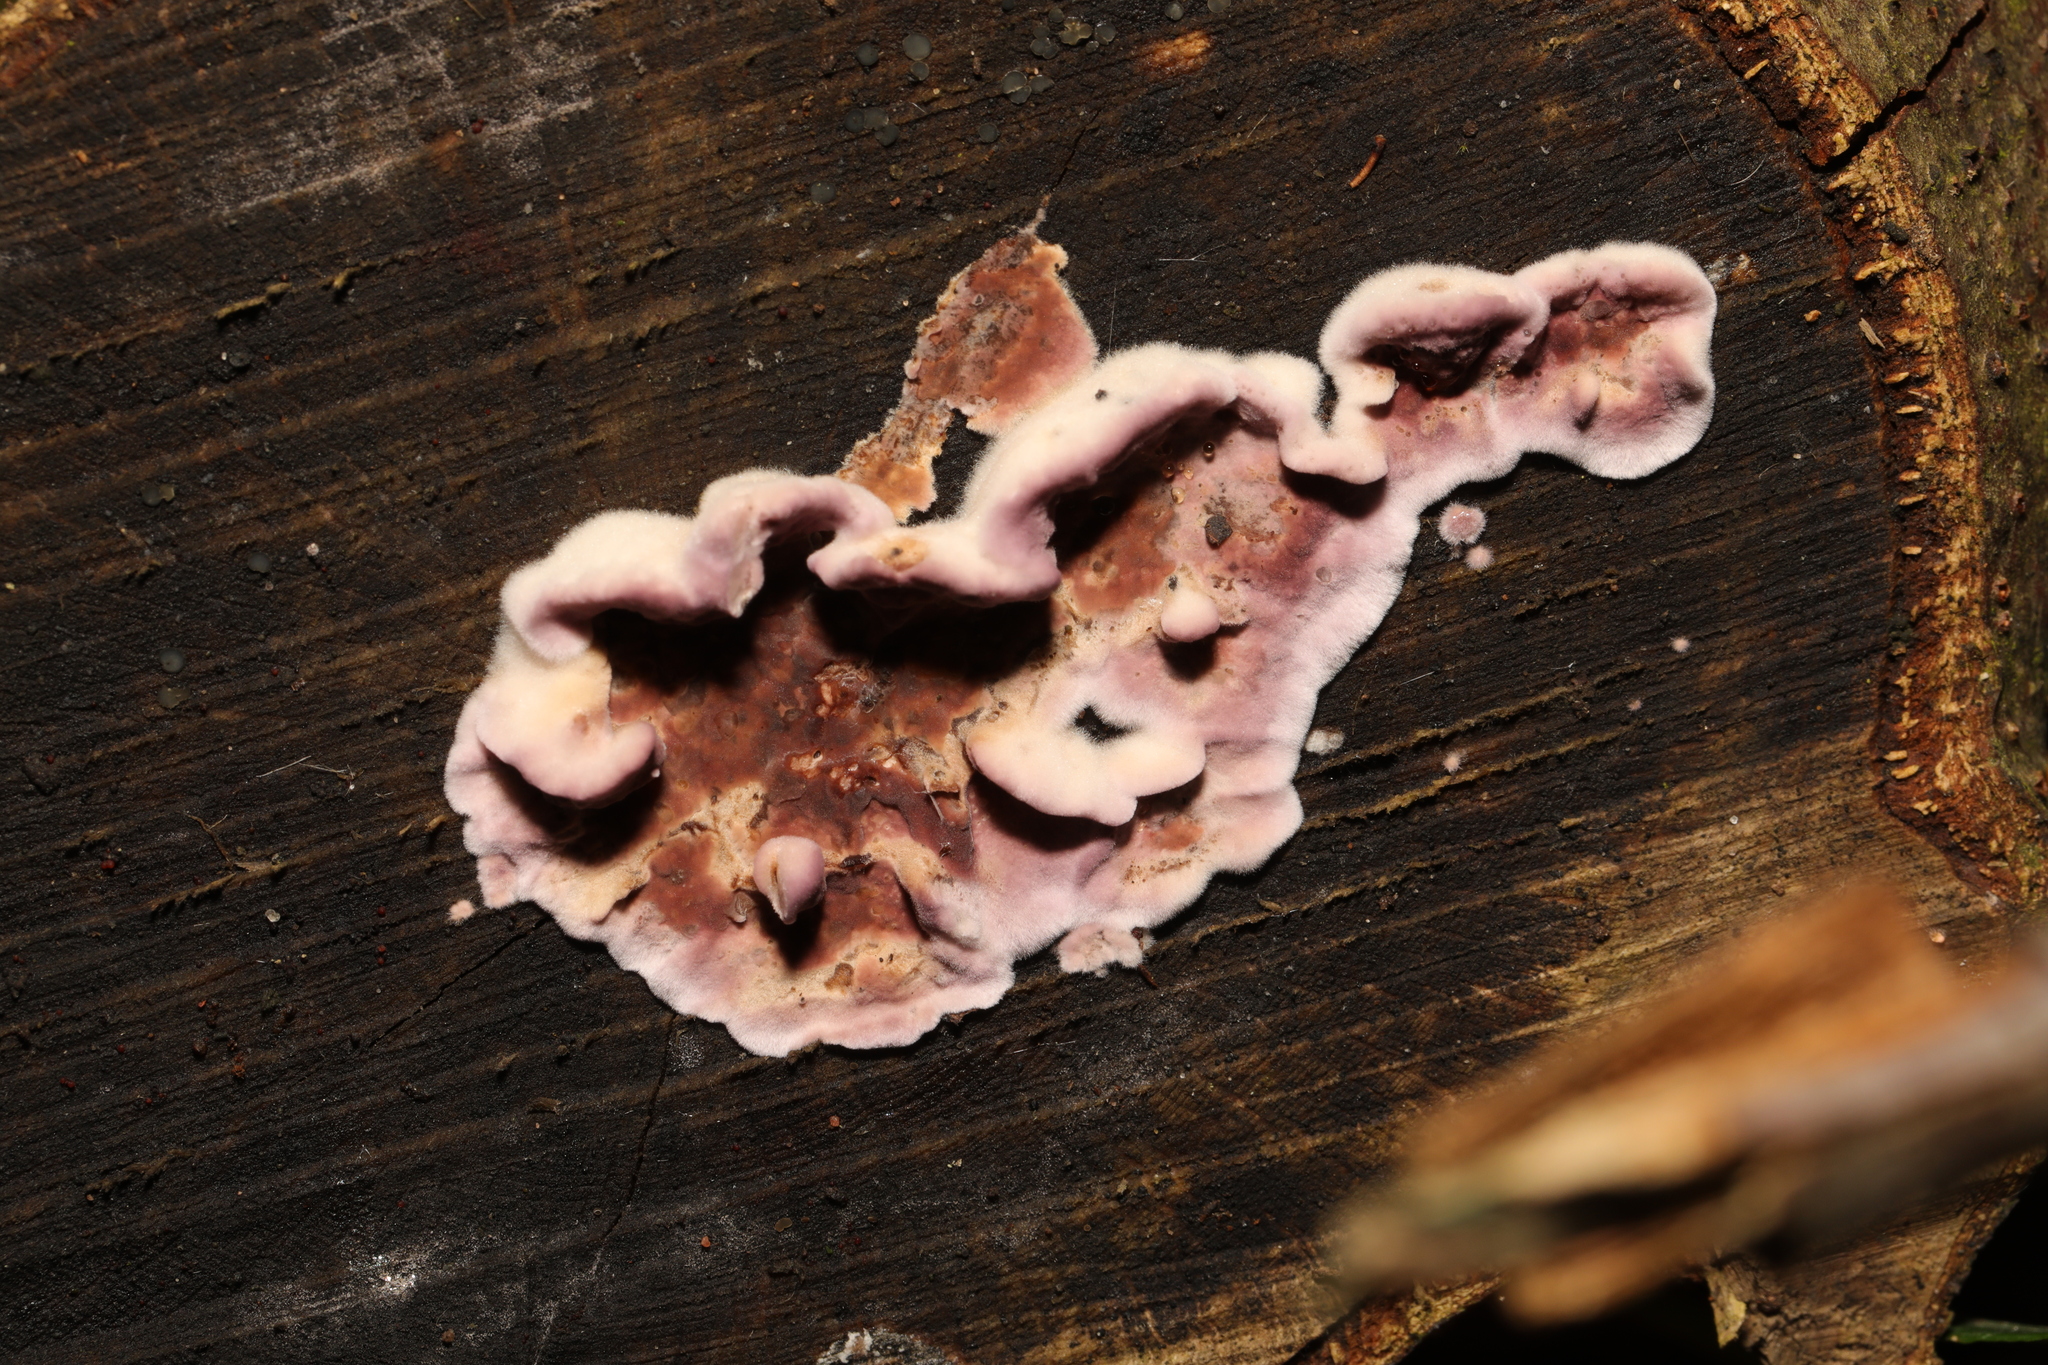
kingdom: Fungi
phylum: Basidiomycota
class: Agaricomycetes
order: Agaricales
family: Cyphellaceae
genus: Chondrostereum
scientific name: Chondrostereum purpureum
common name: Silver leaf disease
